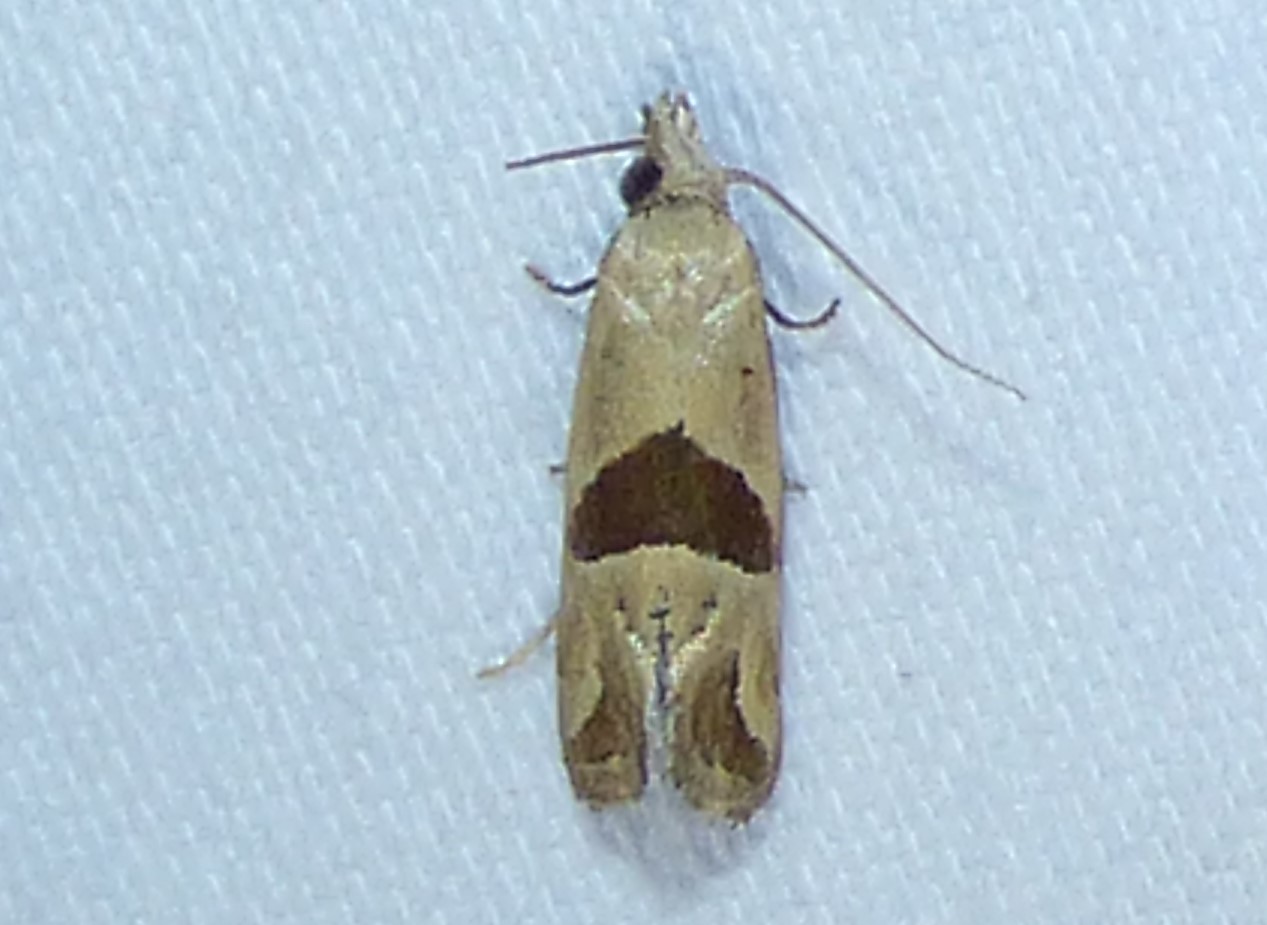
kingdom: Animalia
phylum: Arthropoda
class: Insecta
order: Lepidoptera
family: Tortricidae
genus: Eugnosta
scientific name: Eugnosta sartana
